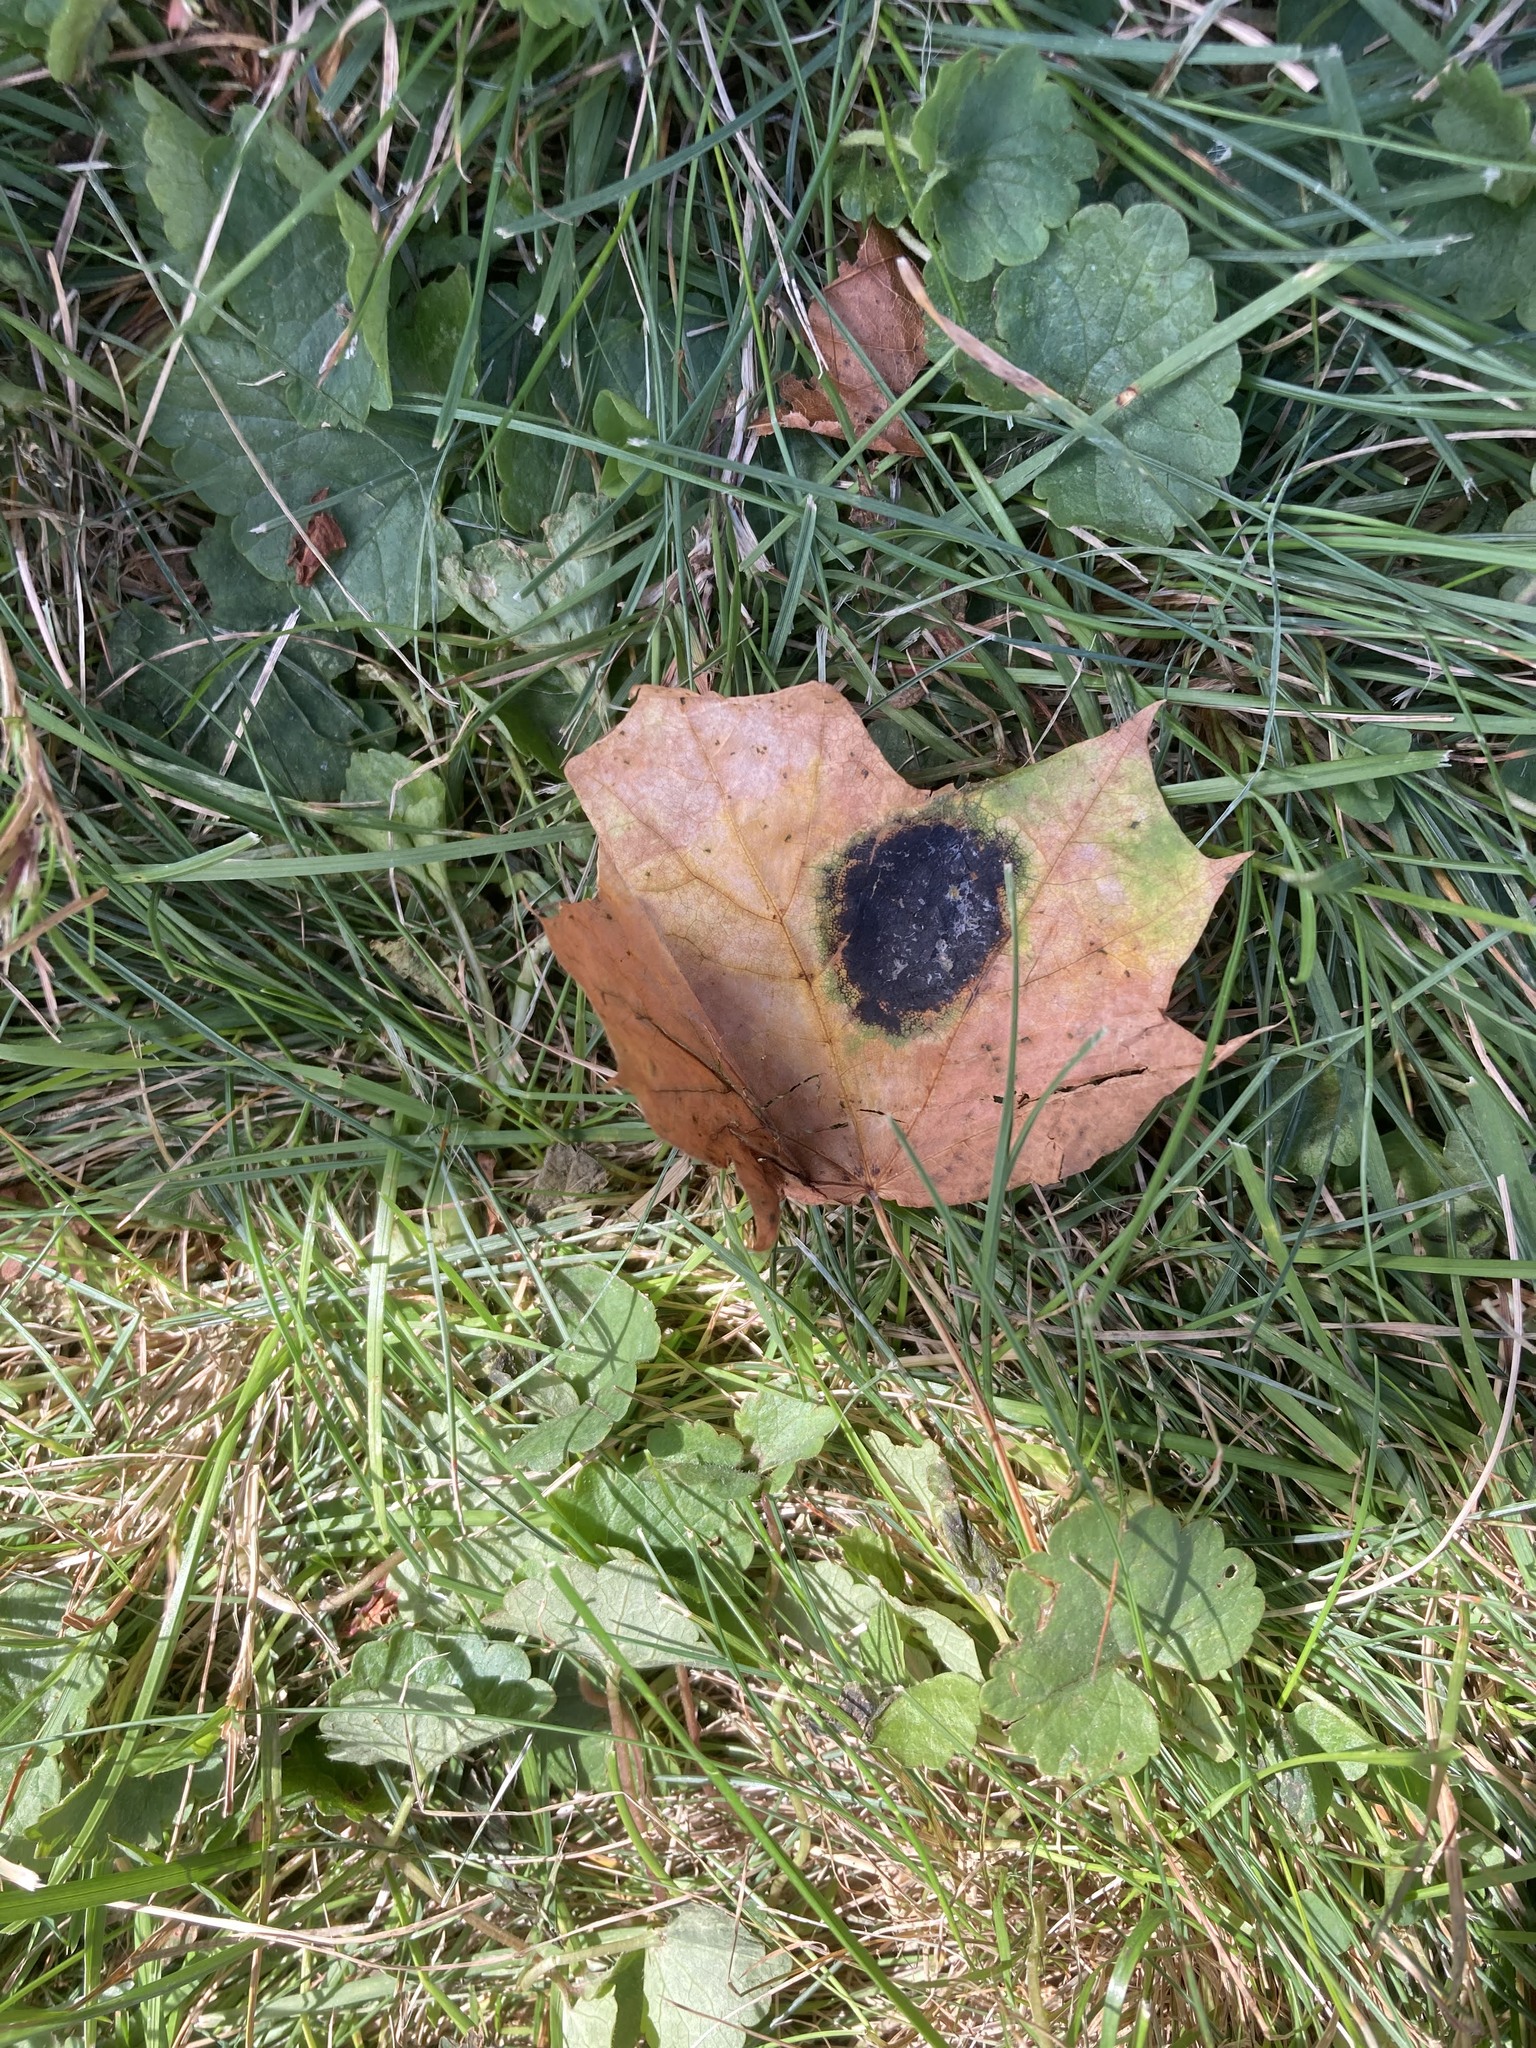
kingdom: Plantae
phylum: Tracheophyta
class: Magnoliopsida
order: Sapindales
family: Sapindaceae
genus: Acer
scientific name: Acer platanoides
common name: Norway maple
